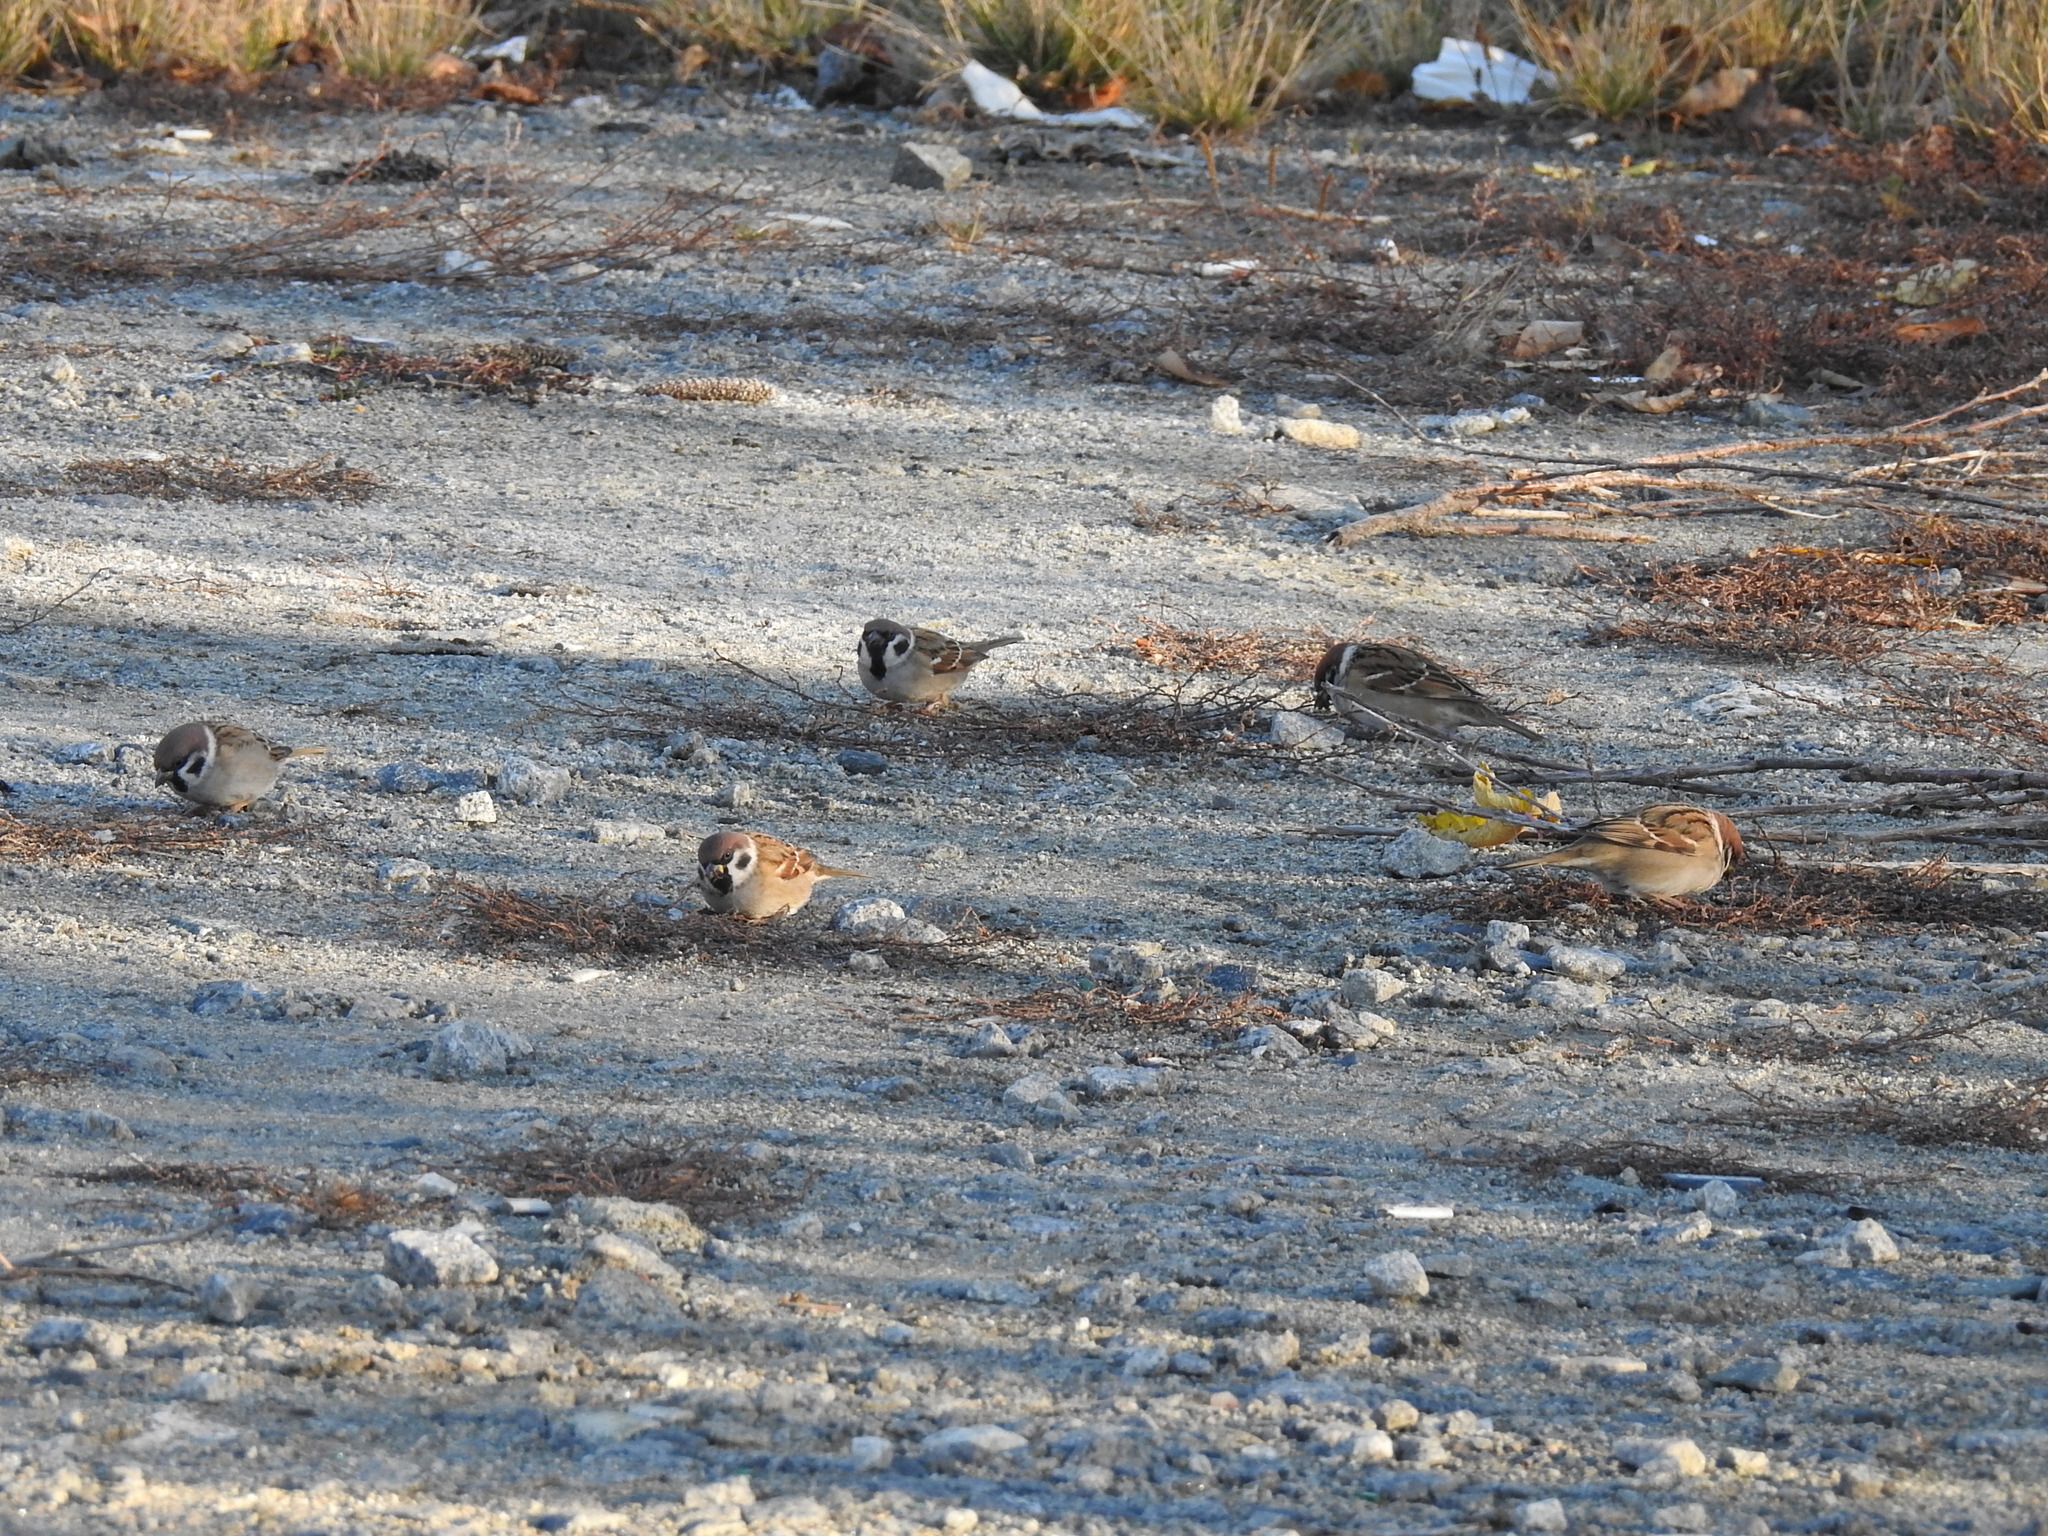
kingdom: Animalia
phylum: Chordata
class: Aves
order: Passeriformes
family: Passeridae
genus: Passer
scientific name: Passer montanus
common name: Eurasian tree sparrow
